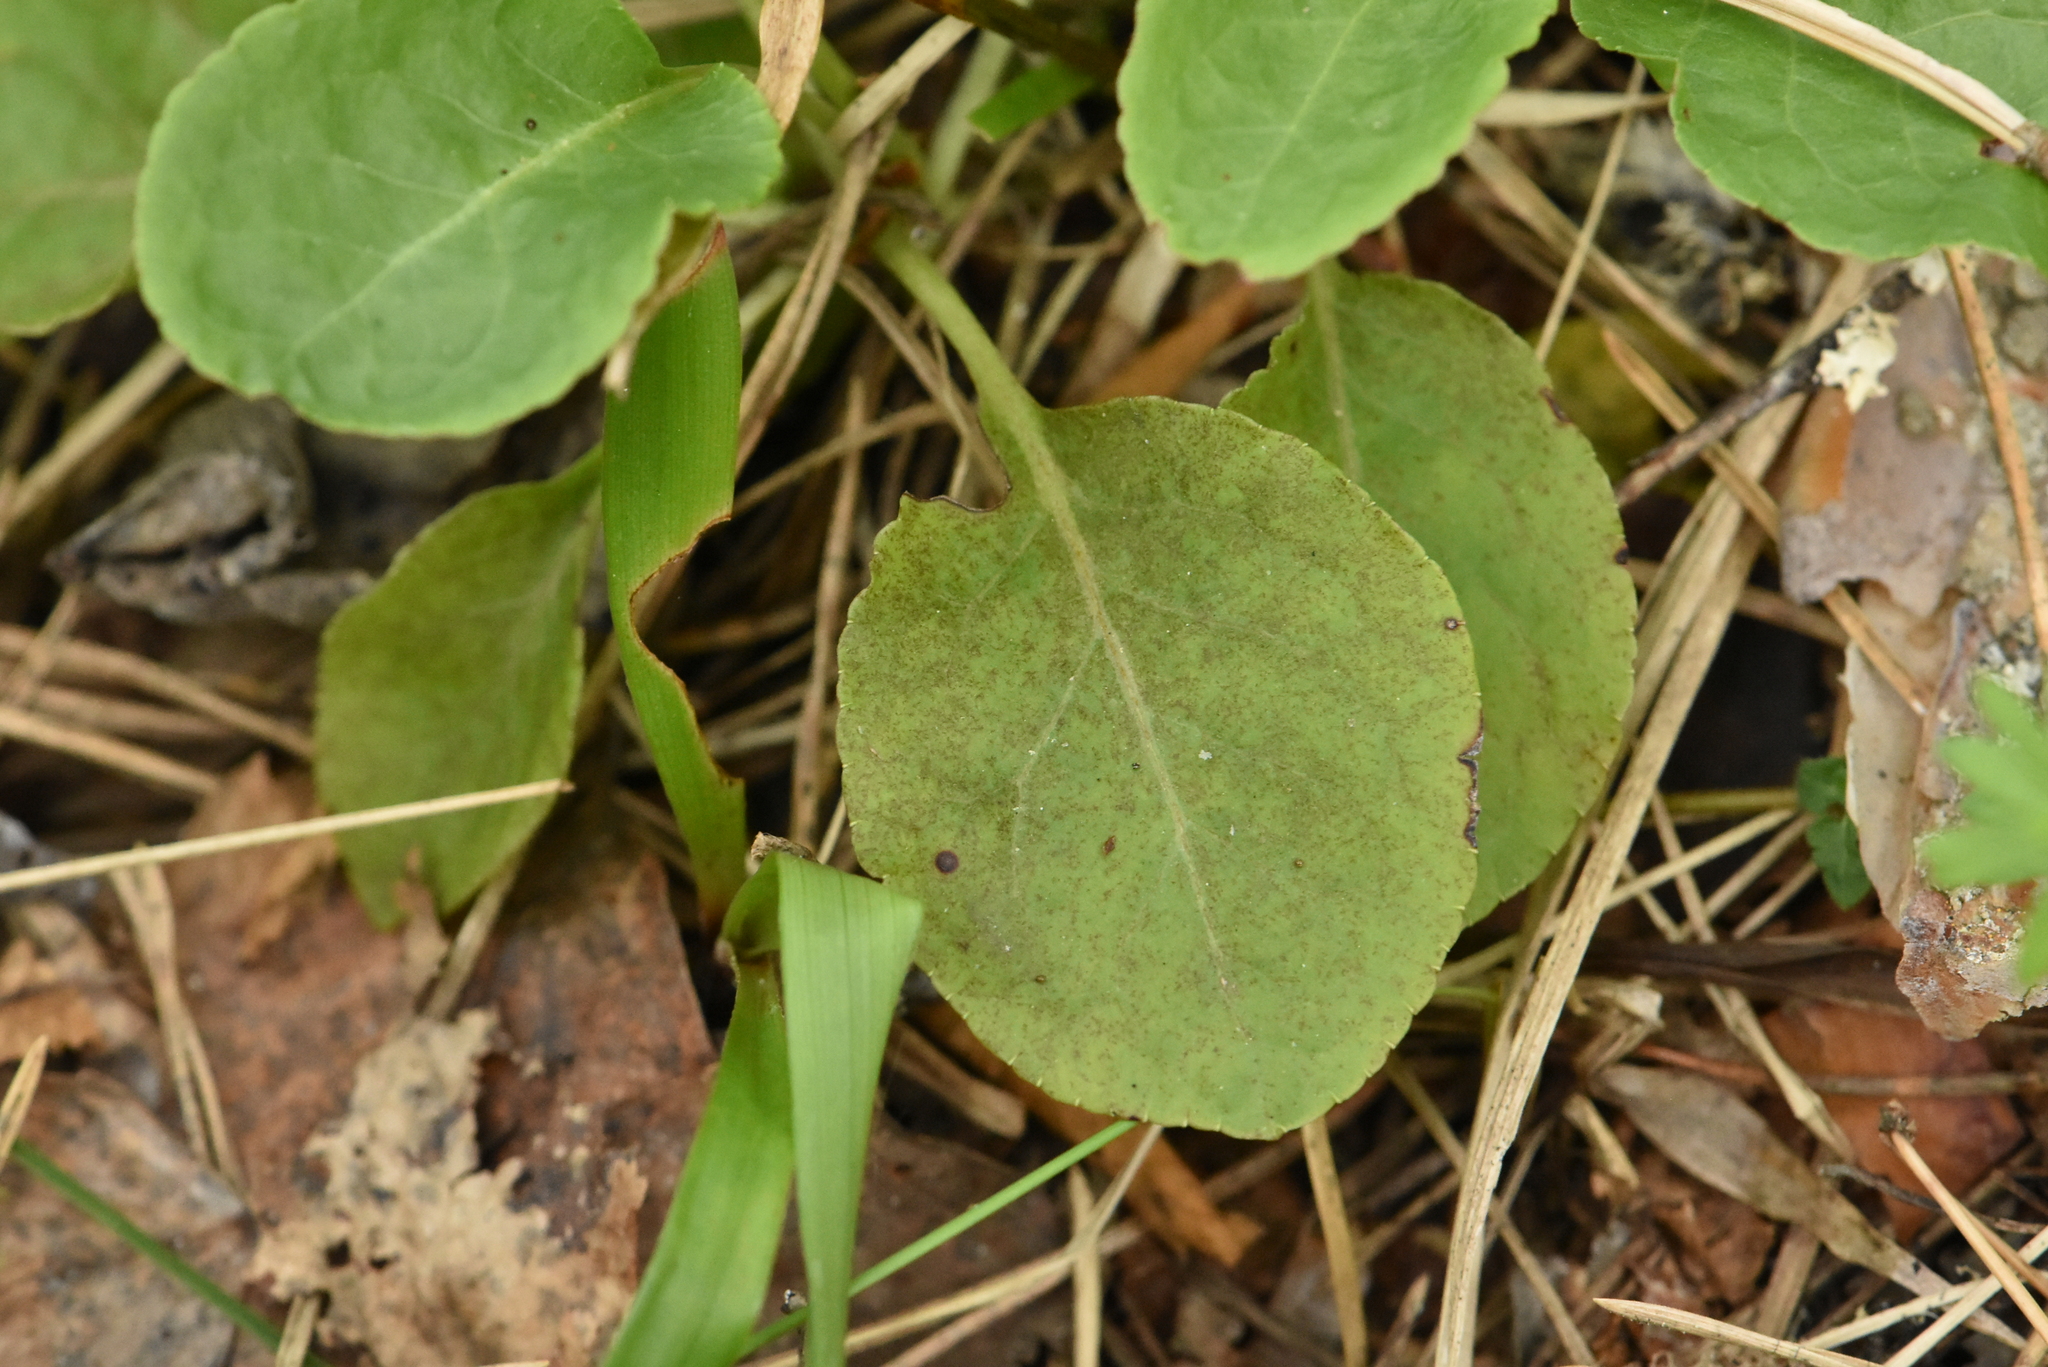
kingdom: Plantae
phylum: Tracheophyta
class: Magnoliopsida
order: Ericales
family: Ericaceae
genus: Pyrola
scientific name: Pyrola minor
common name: Common wintergreen
